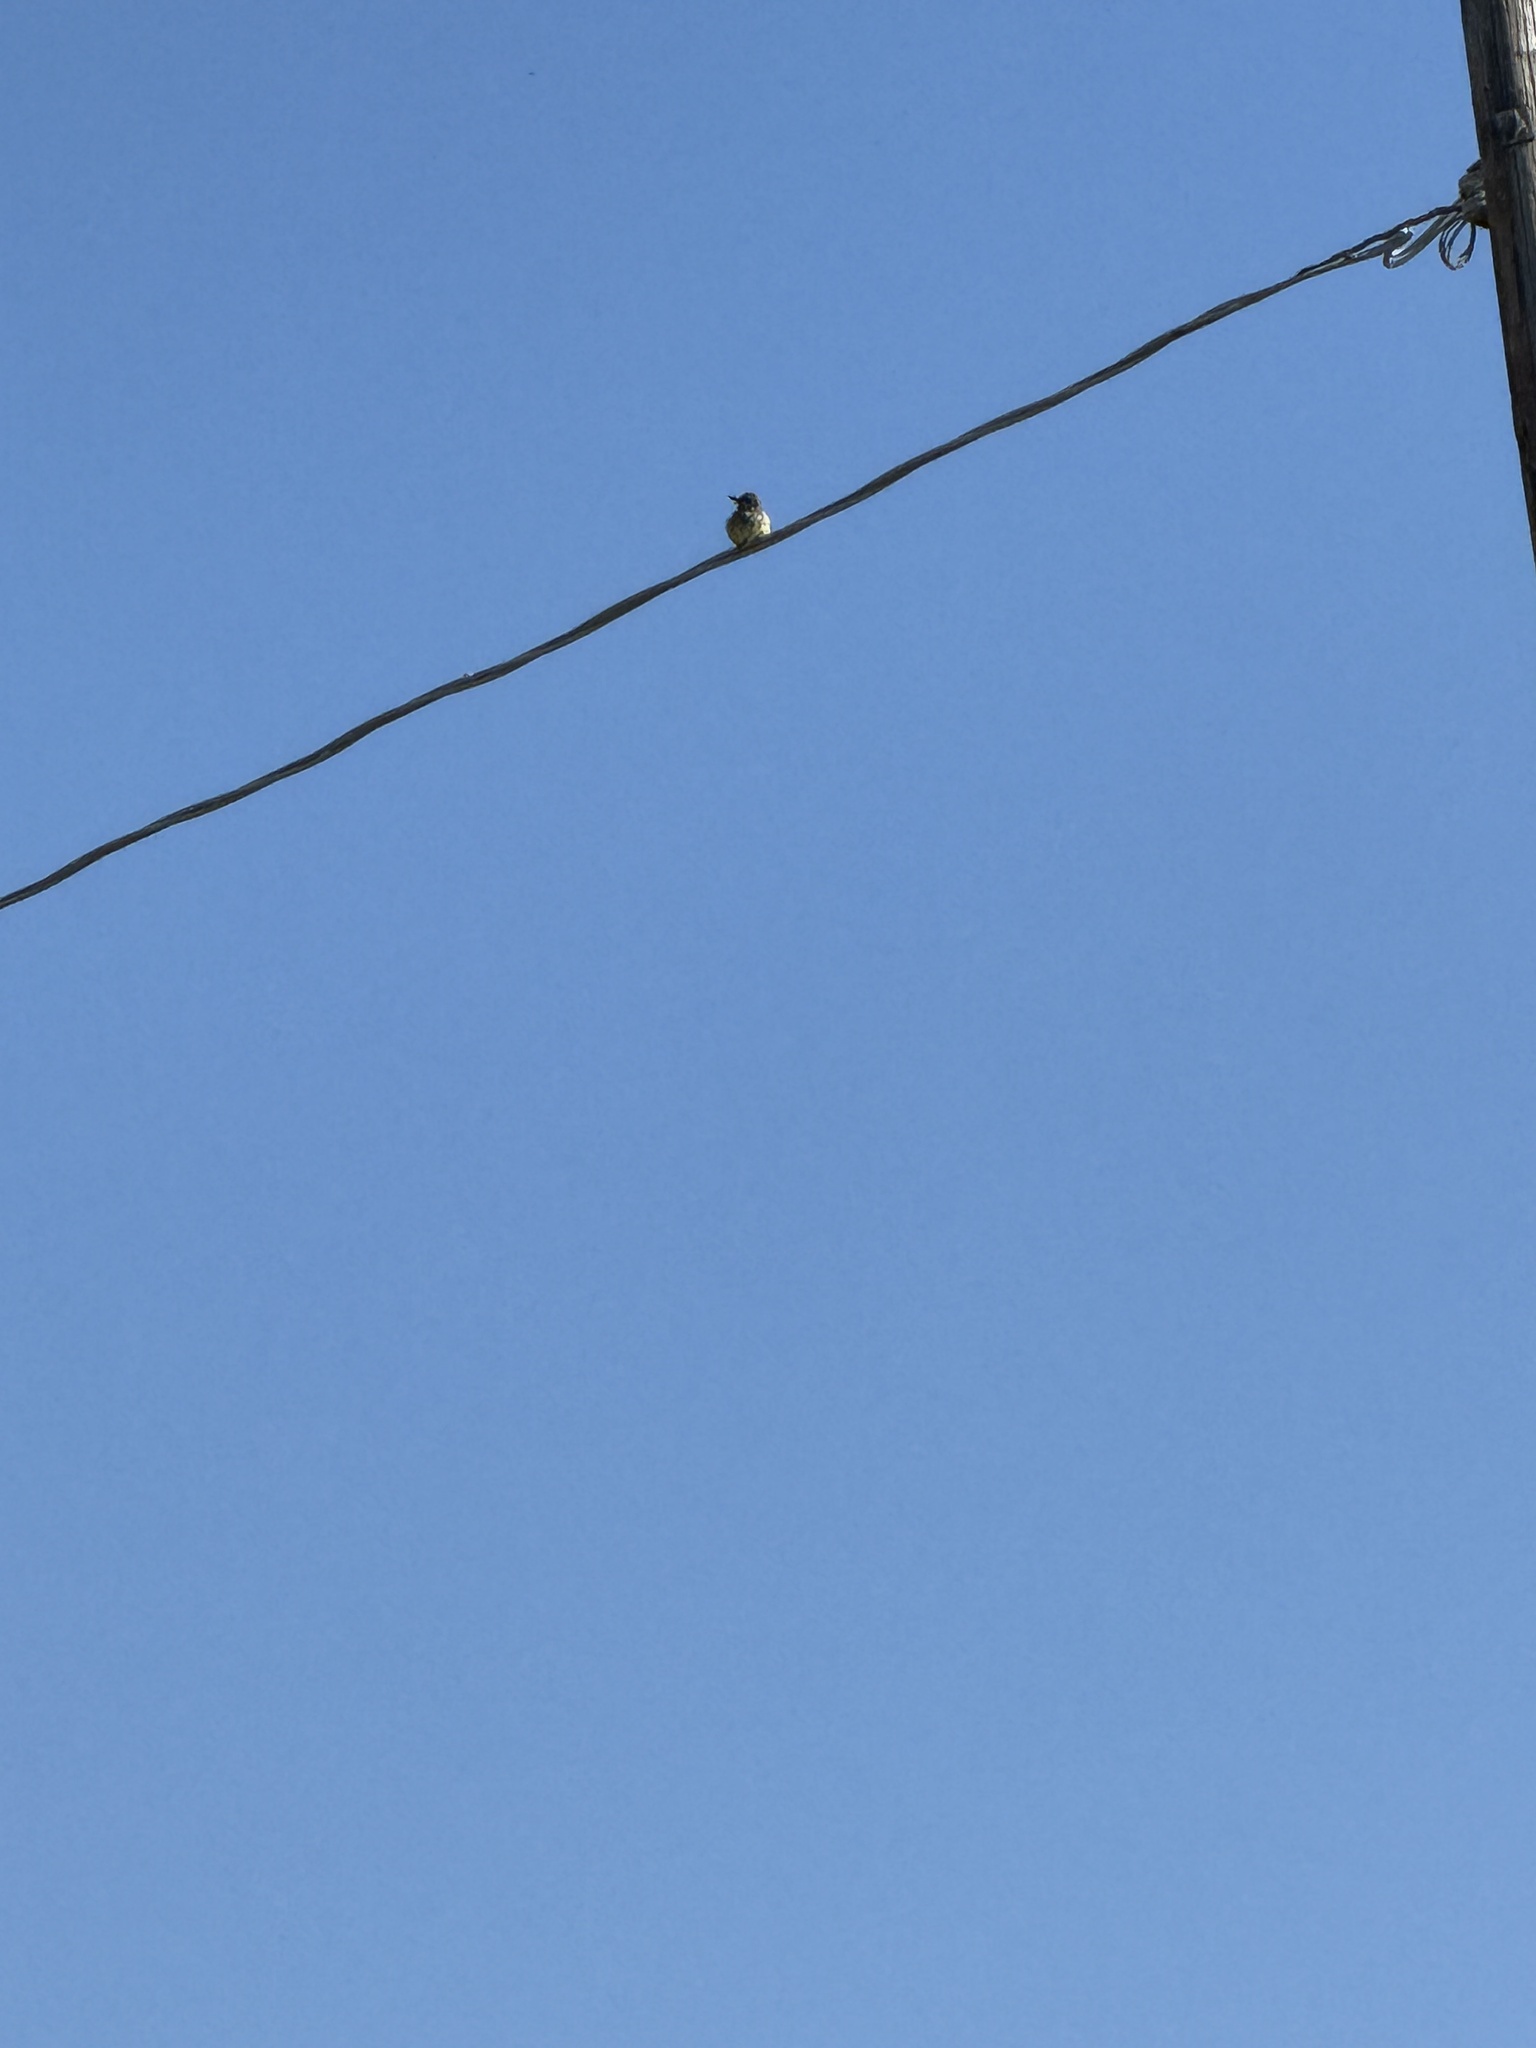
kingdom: Animalia
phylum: Chordata
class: Aves
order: Passeriformes
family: Tyrannidae
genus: Tyrannus
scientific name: Tyrannus vociferans
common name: Cassin's kingbird
